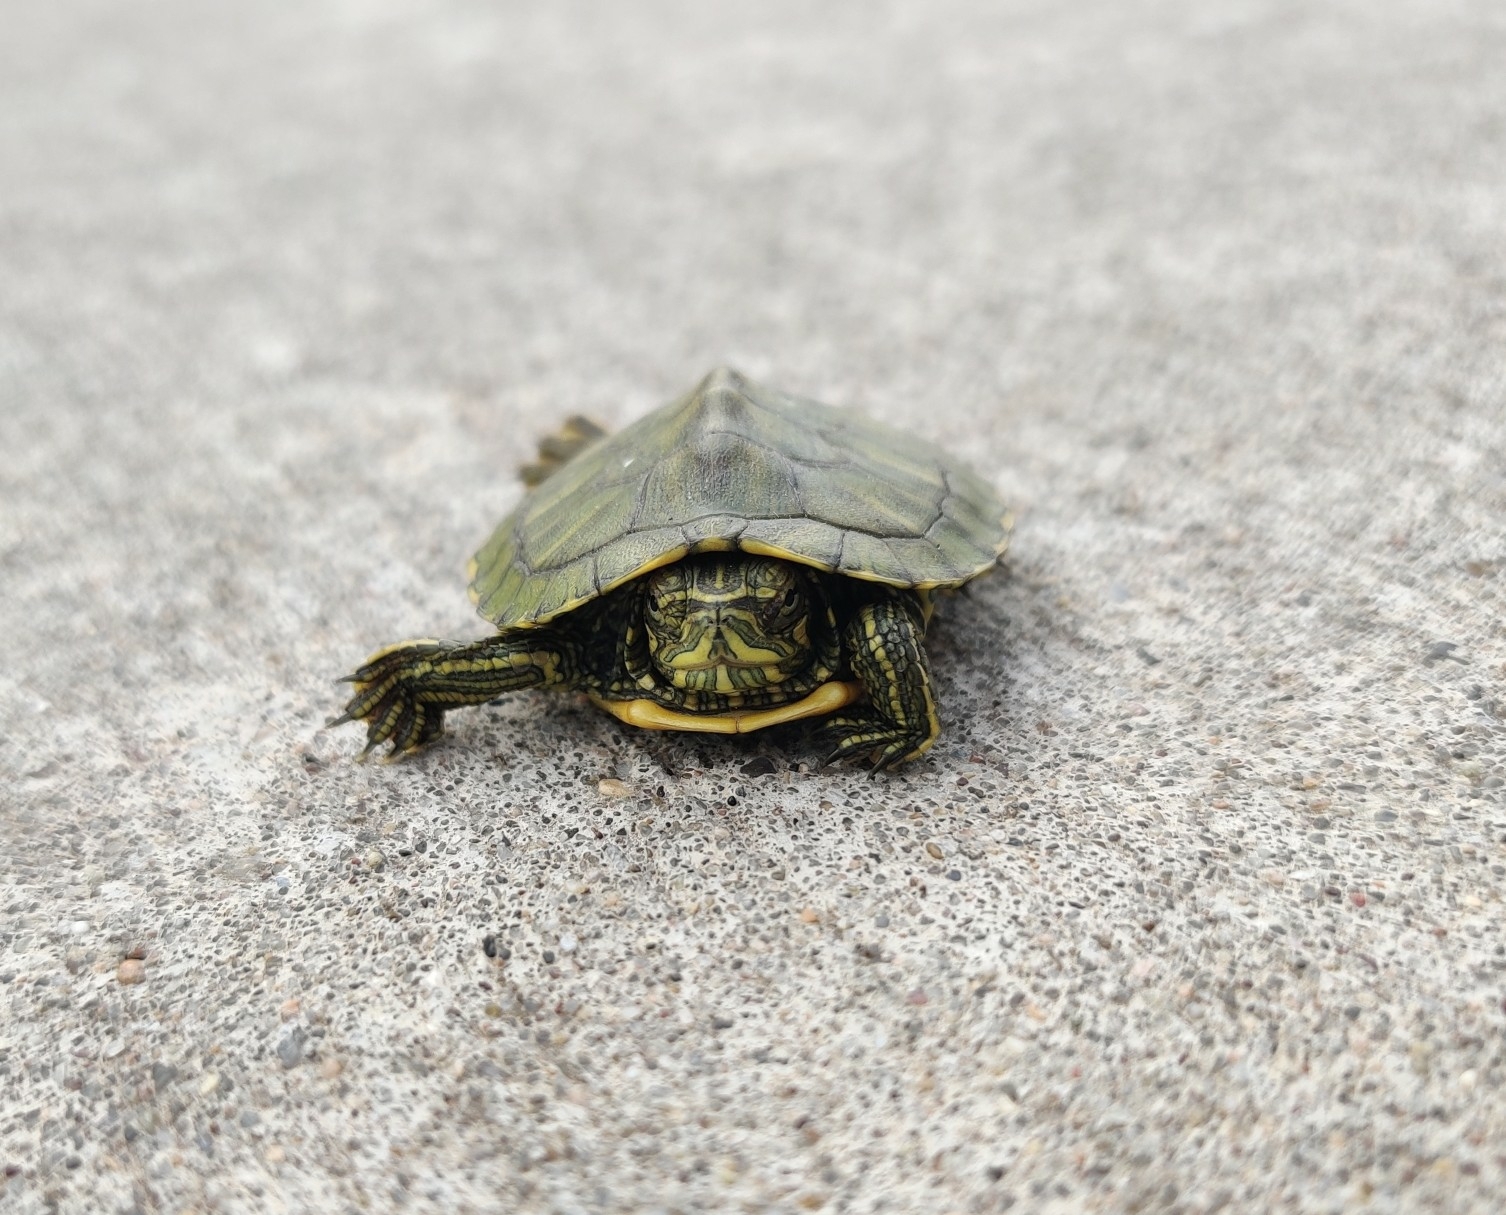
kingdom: Animalia
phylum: Chordata
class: Testudines
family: Emydidae
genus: Trachemys
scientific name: Trachemys scripta
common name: Slider
